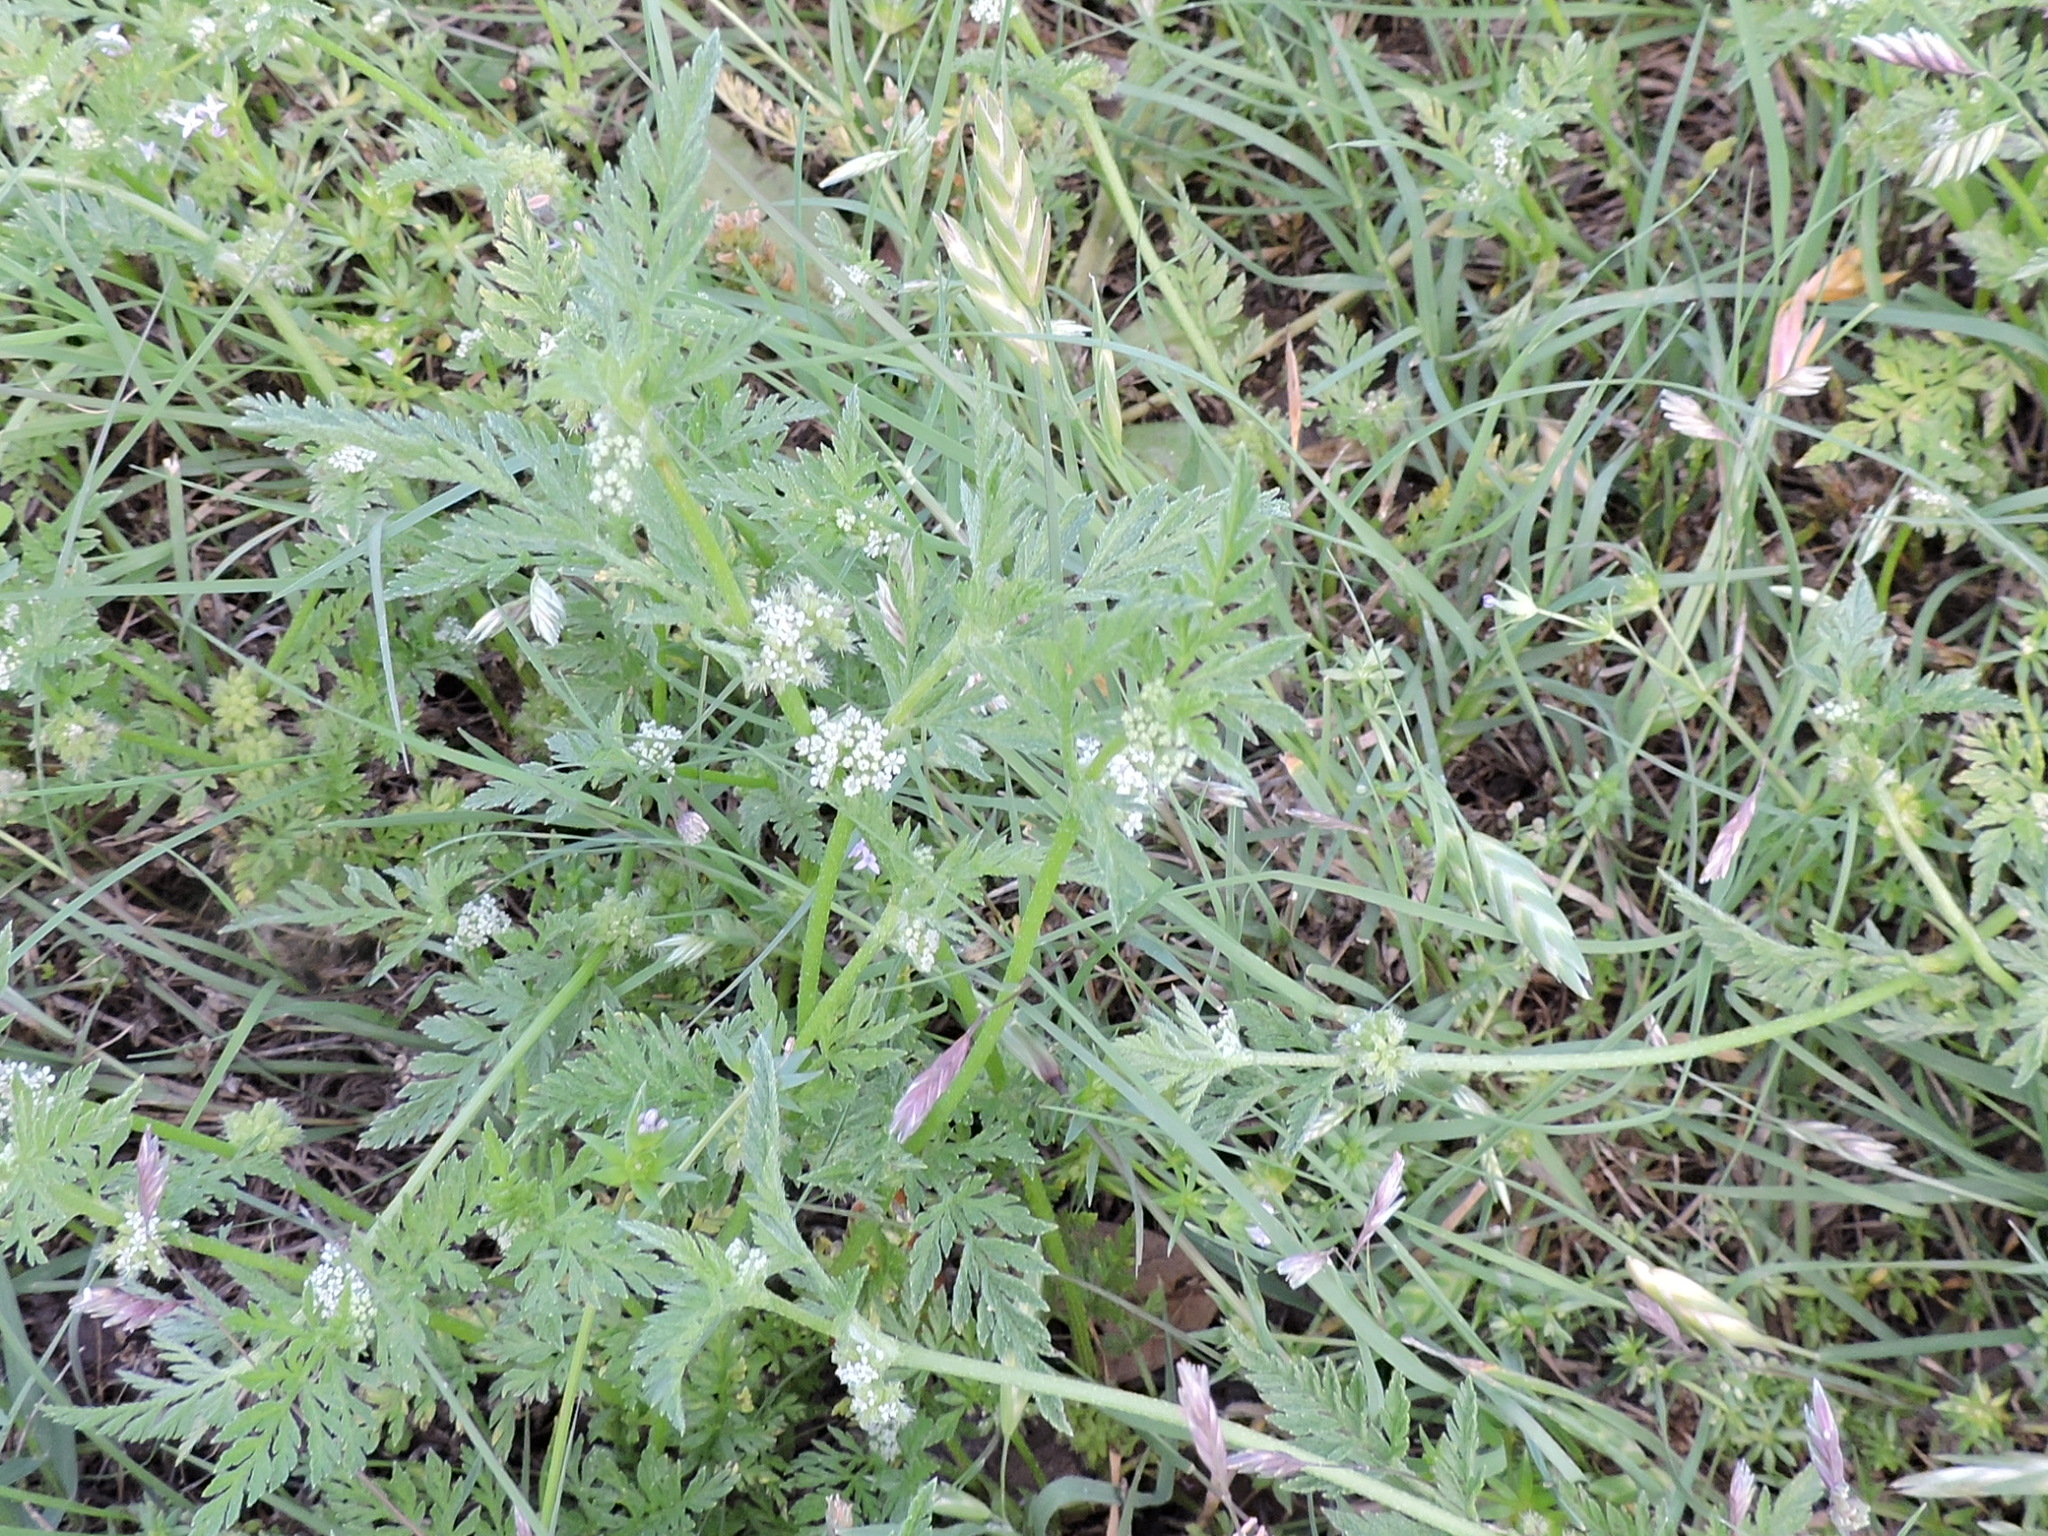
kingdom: Plantae
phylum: Tracheophyta
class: Magnoliopsida
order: Apiales
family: Apiaceae
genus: Torilis
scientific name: Torilis nodosa
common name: Knotted hedge-parsley
